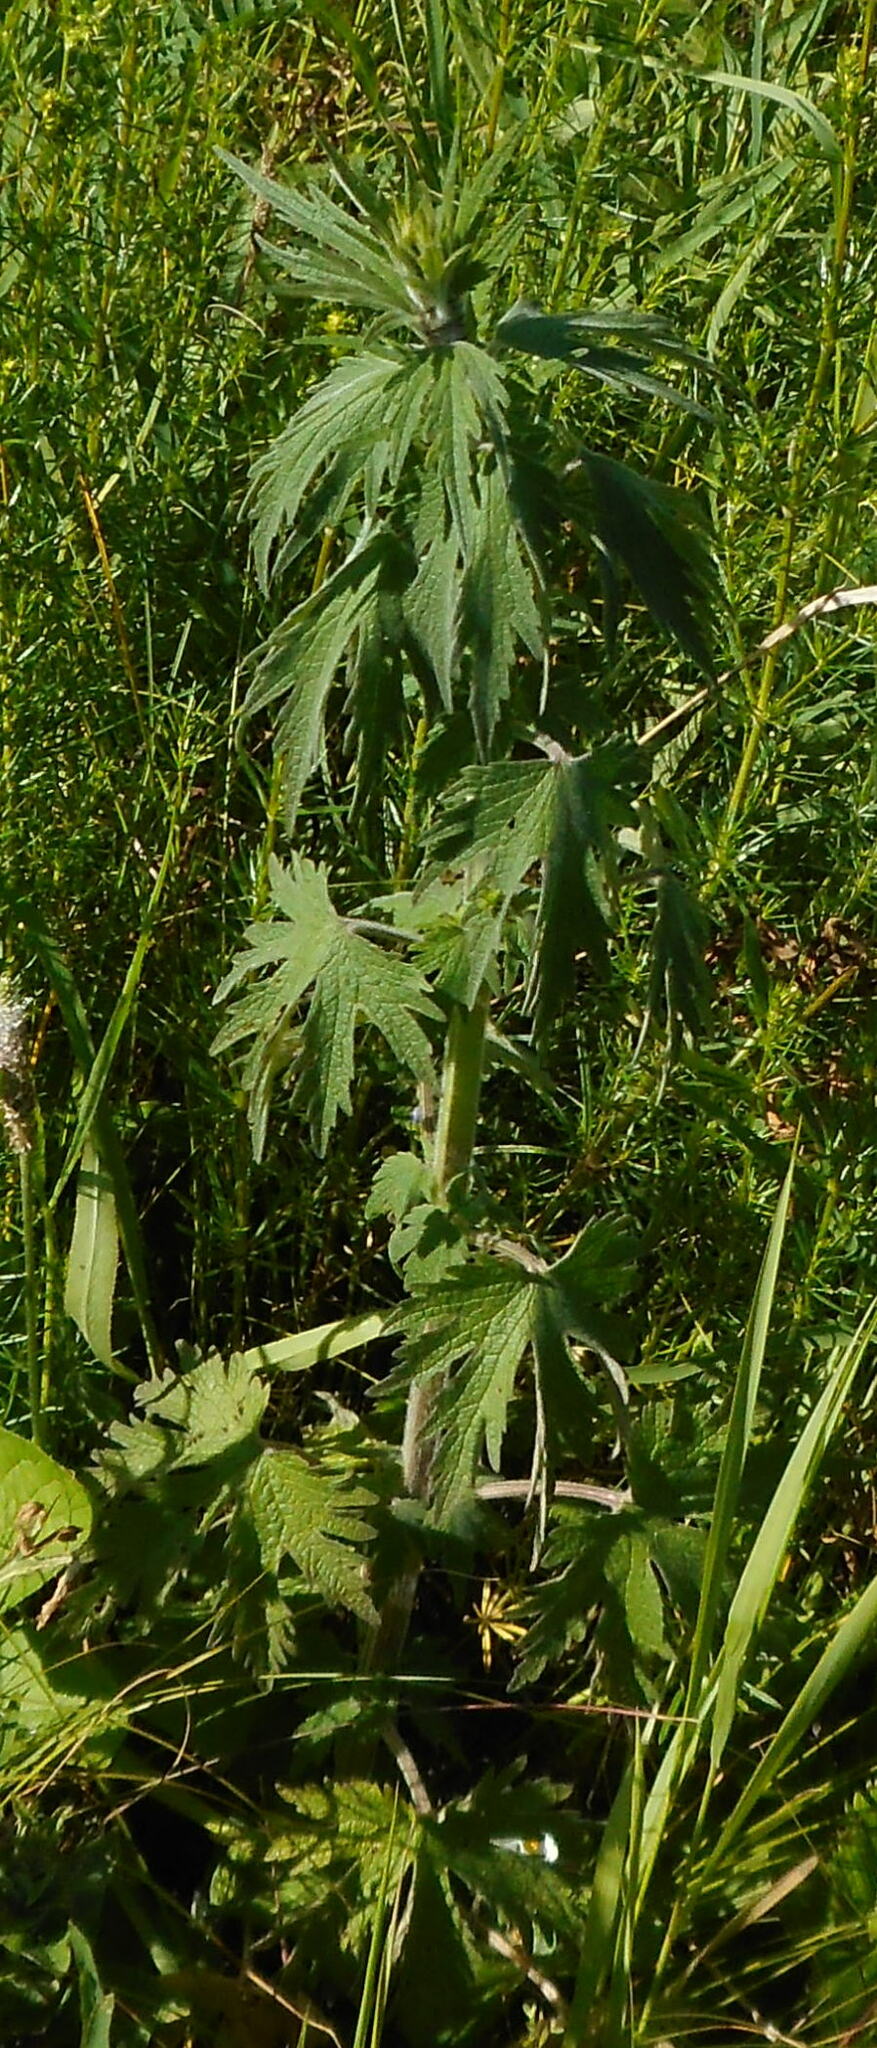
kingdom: Plantae
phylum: Tracheophyta
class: Magnoliopsida
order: Lamiales
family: Lamiaceae
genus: Leonurus
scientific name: Leonurus quinquelobatus
